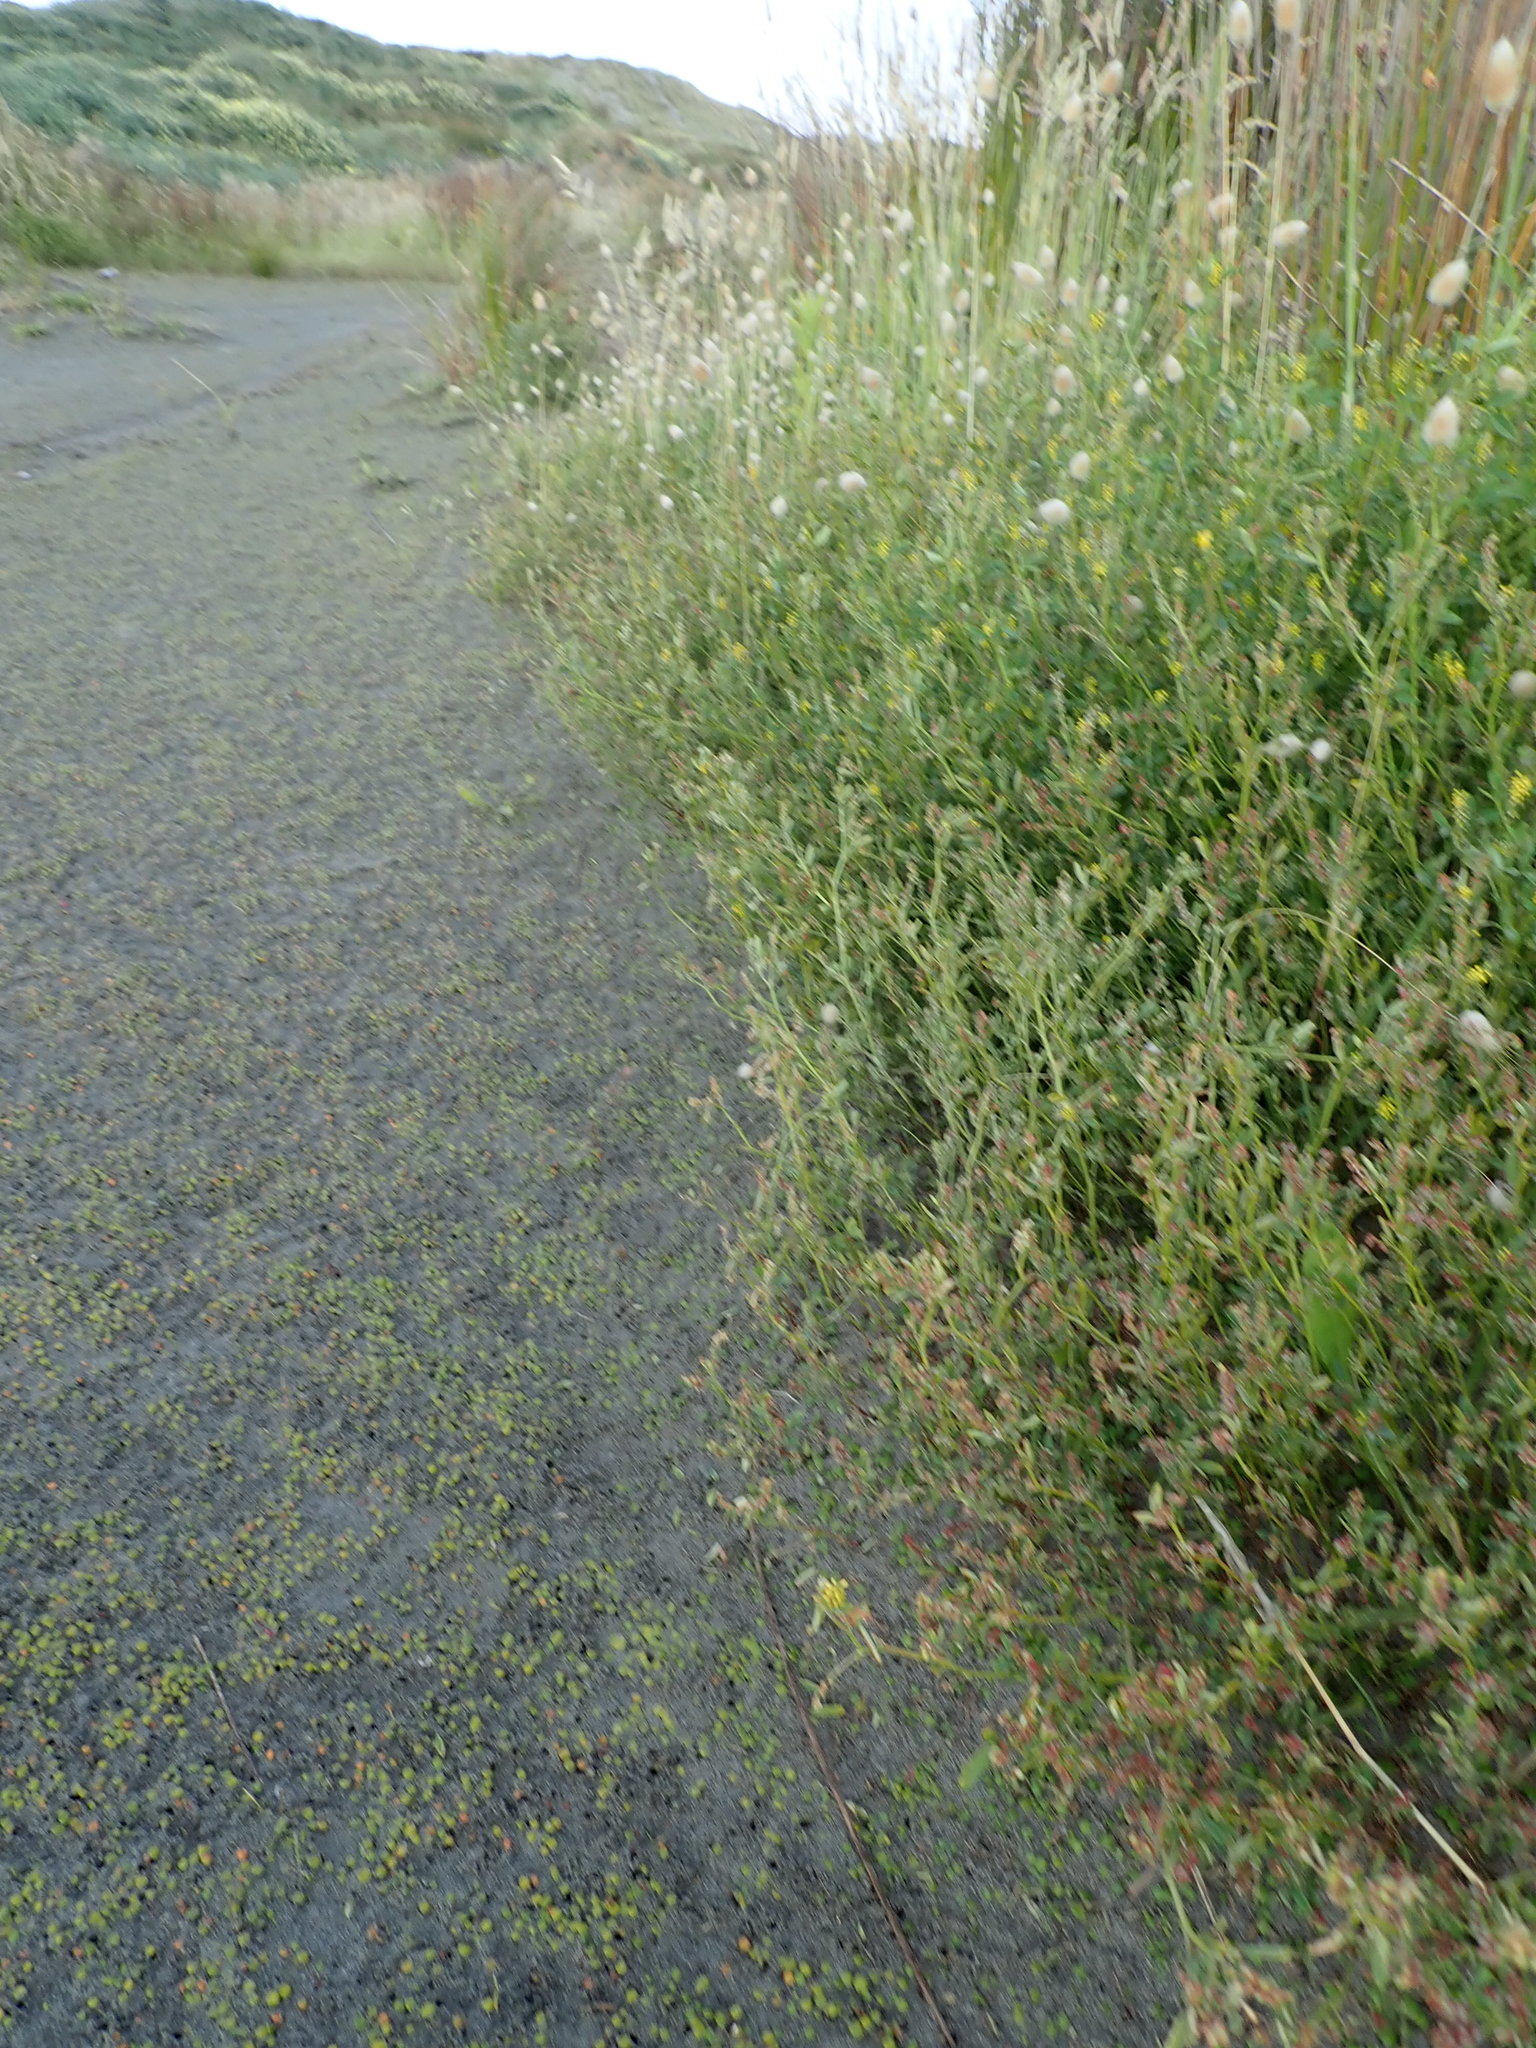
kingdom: Plantae
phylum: Tracheophyta
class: Magnoliopsida
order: Fabales
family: Fabaceae
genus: Melilotus
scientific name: Melilotus indicus
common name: Small melilot
